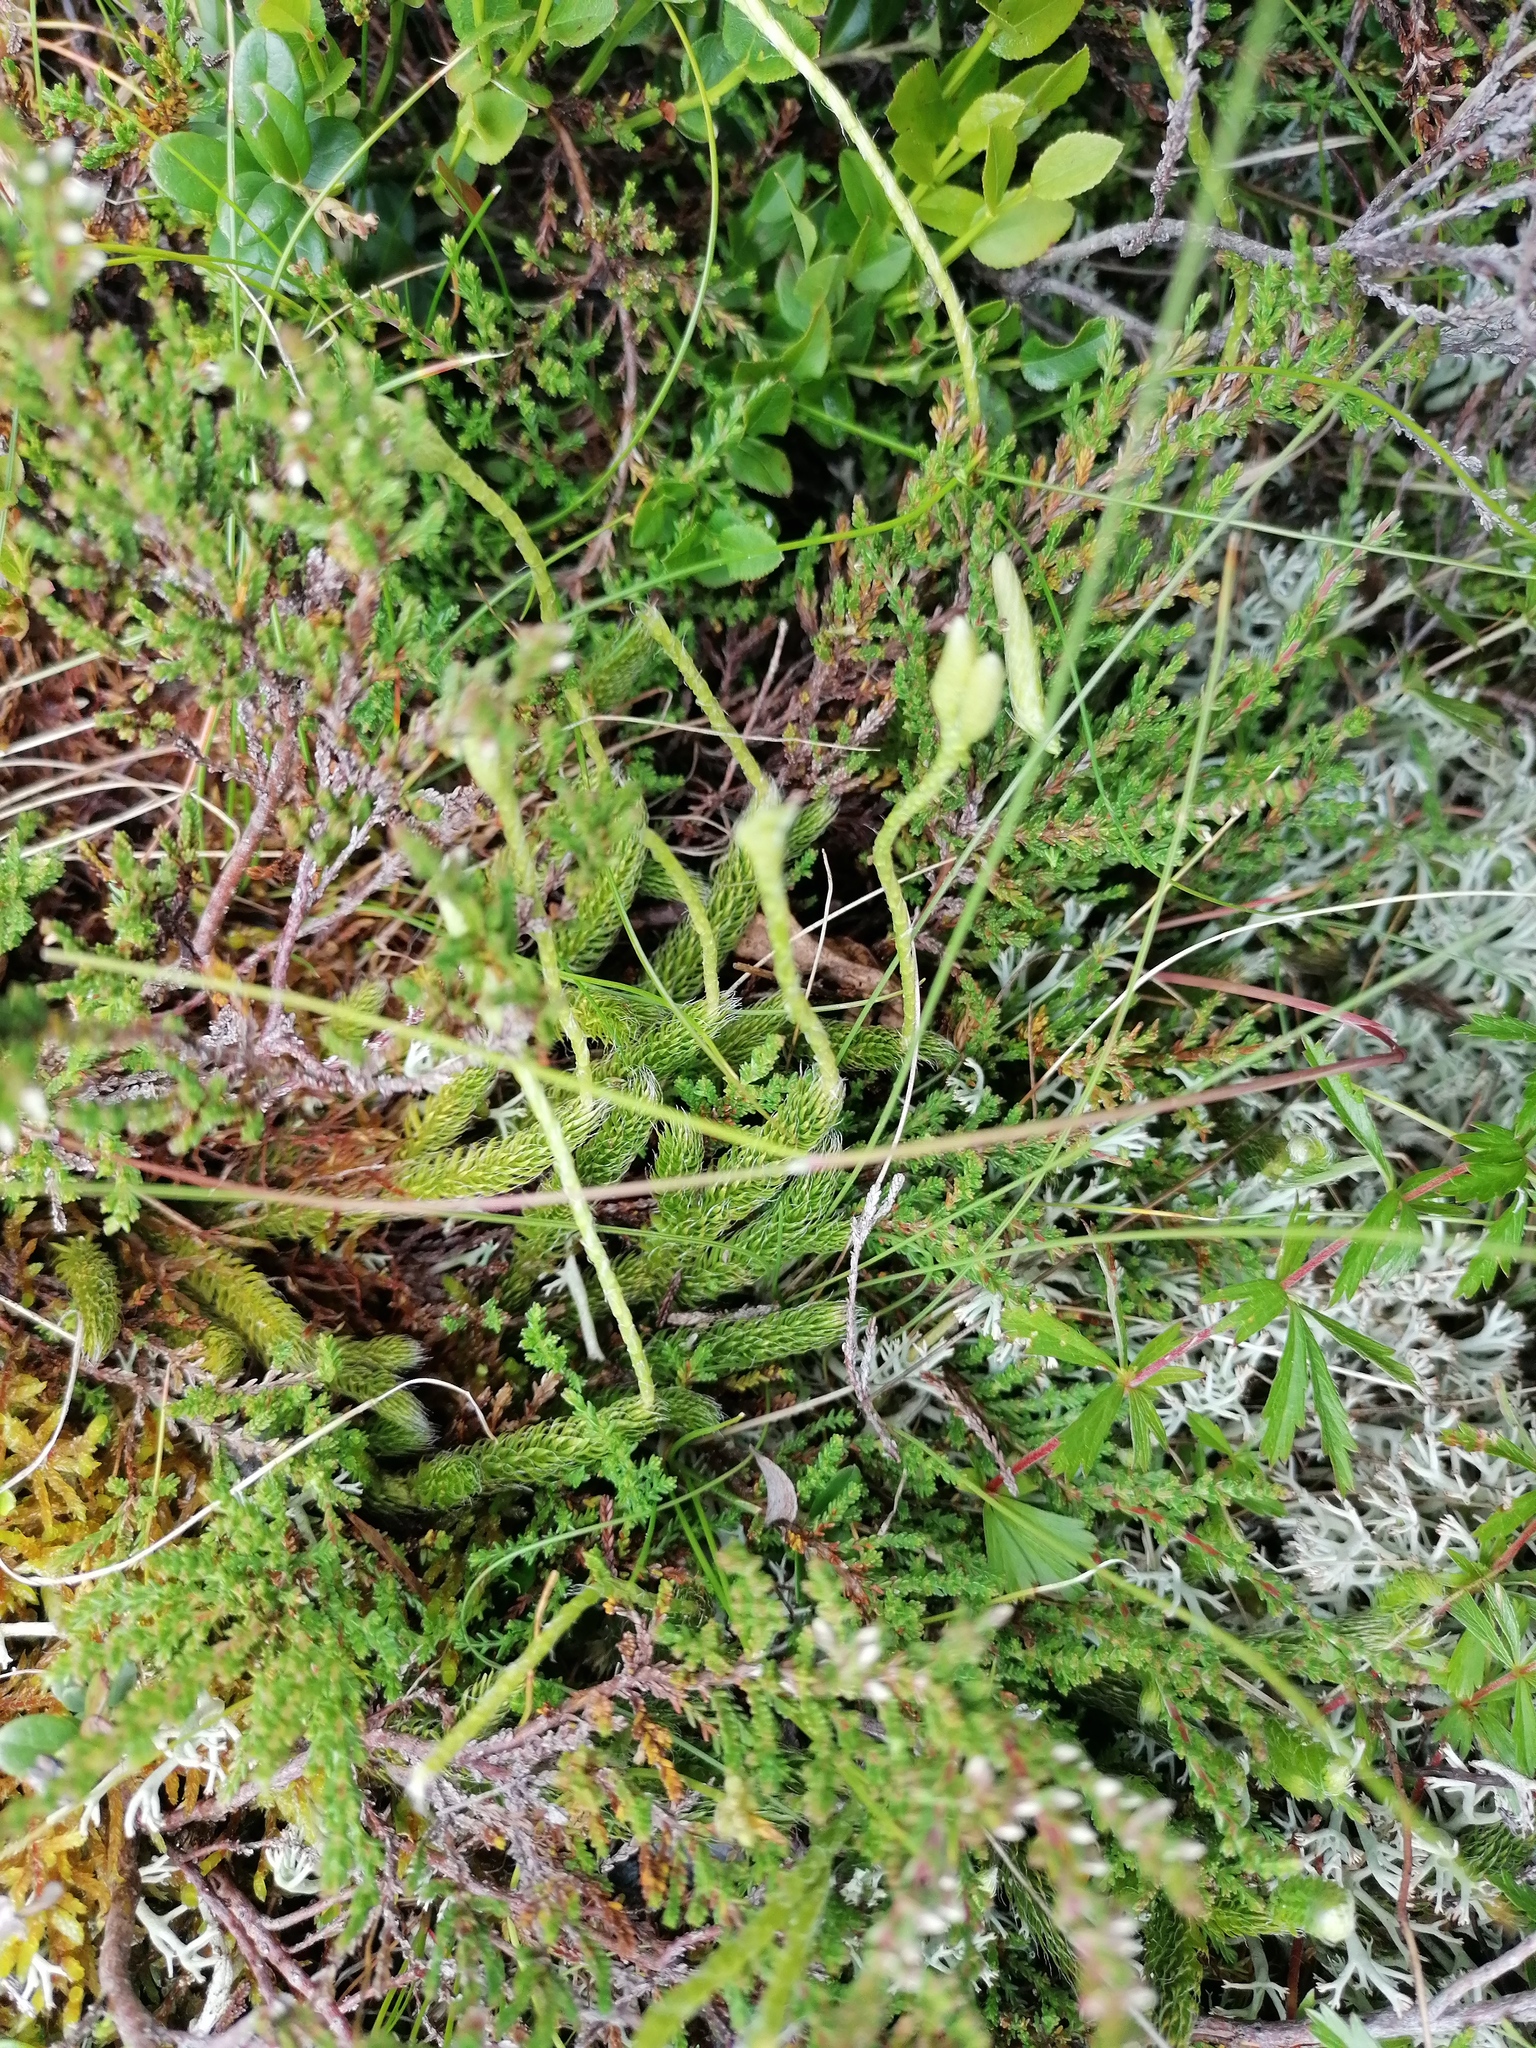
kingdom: Plantae
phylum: Tracheophyta
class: Lycopodiopsida
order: Lycopodiales
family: Lycopodiaceae
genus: Lycopodium
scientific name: Lycopodium clavatum
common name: Stag's-horn clubmoss
